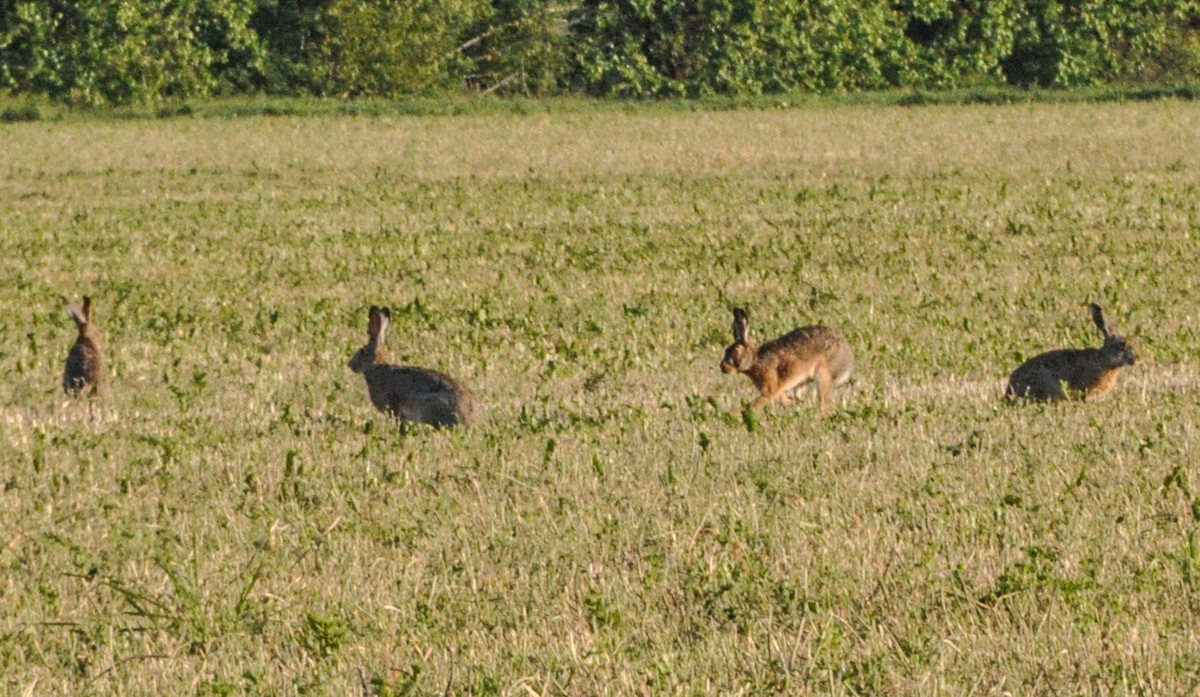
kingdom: Animalia
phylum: Chordata
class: Mammalia
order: Lagomorpha
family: Leporidae
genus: Lepus
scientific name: Lepus europaeus
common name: European hare
